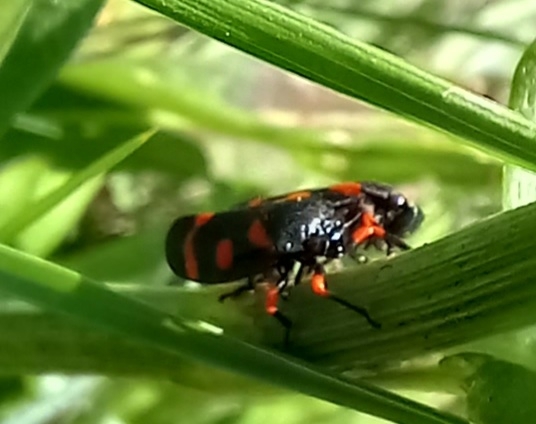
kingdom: Animalia
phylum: Arthropoda
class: Insecta
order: Hemiptera
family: Cercopidae
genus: Cercopis
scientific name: Cercopis intermedia
